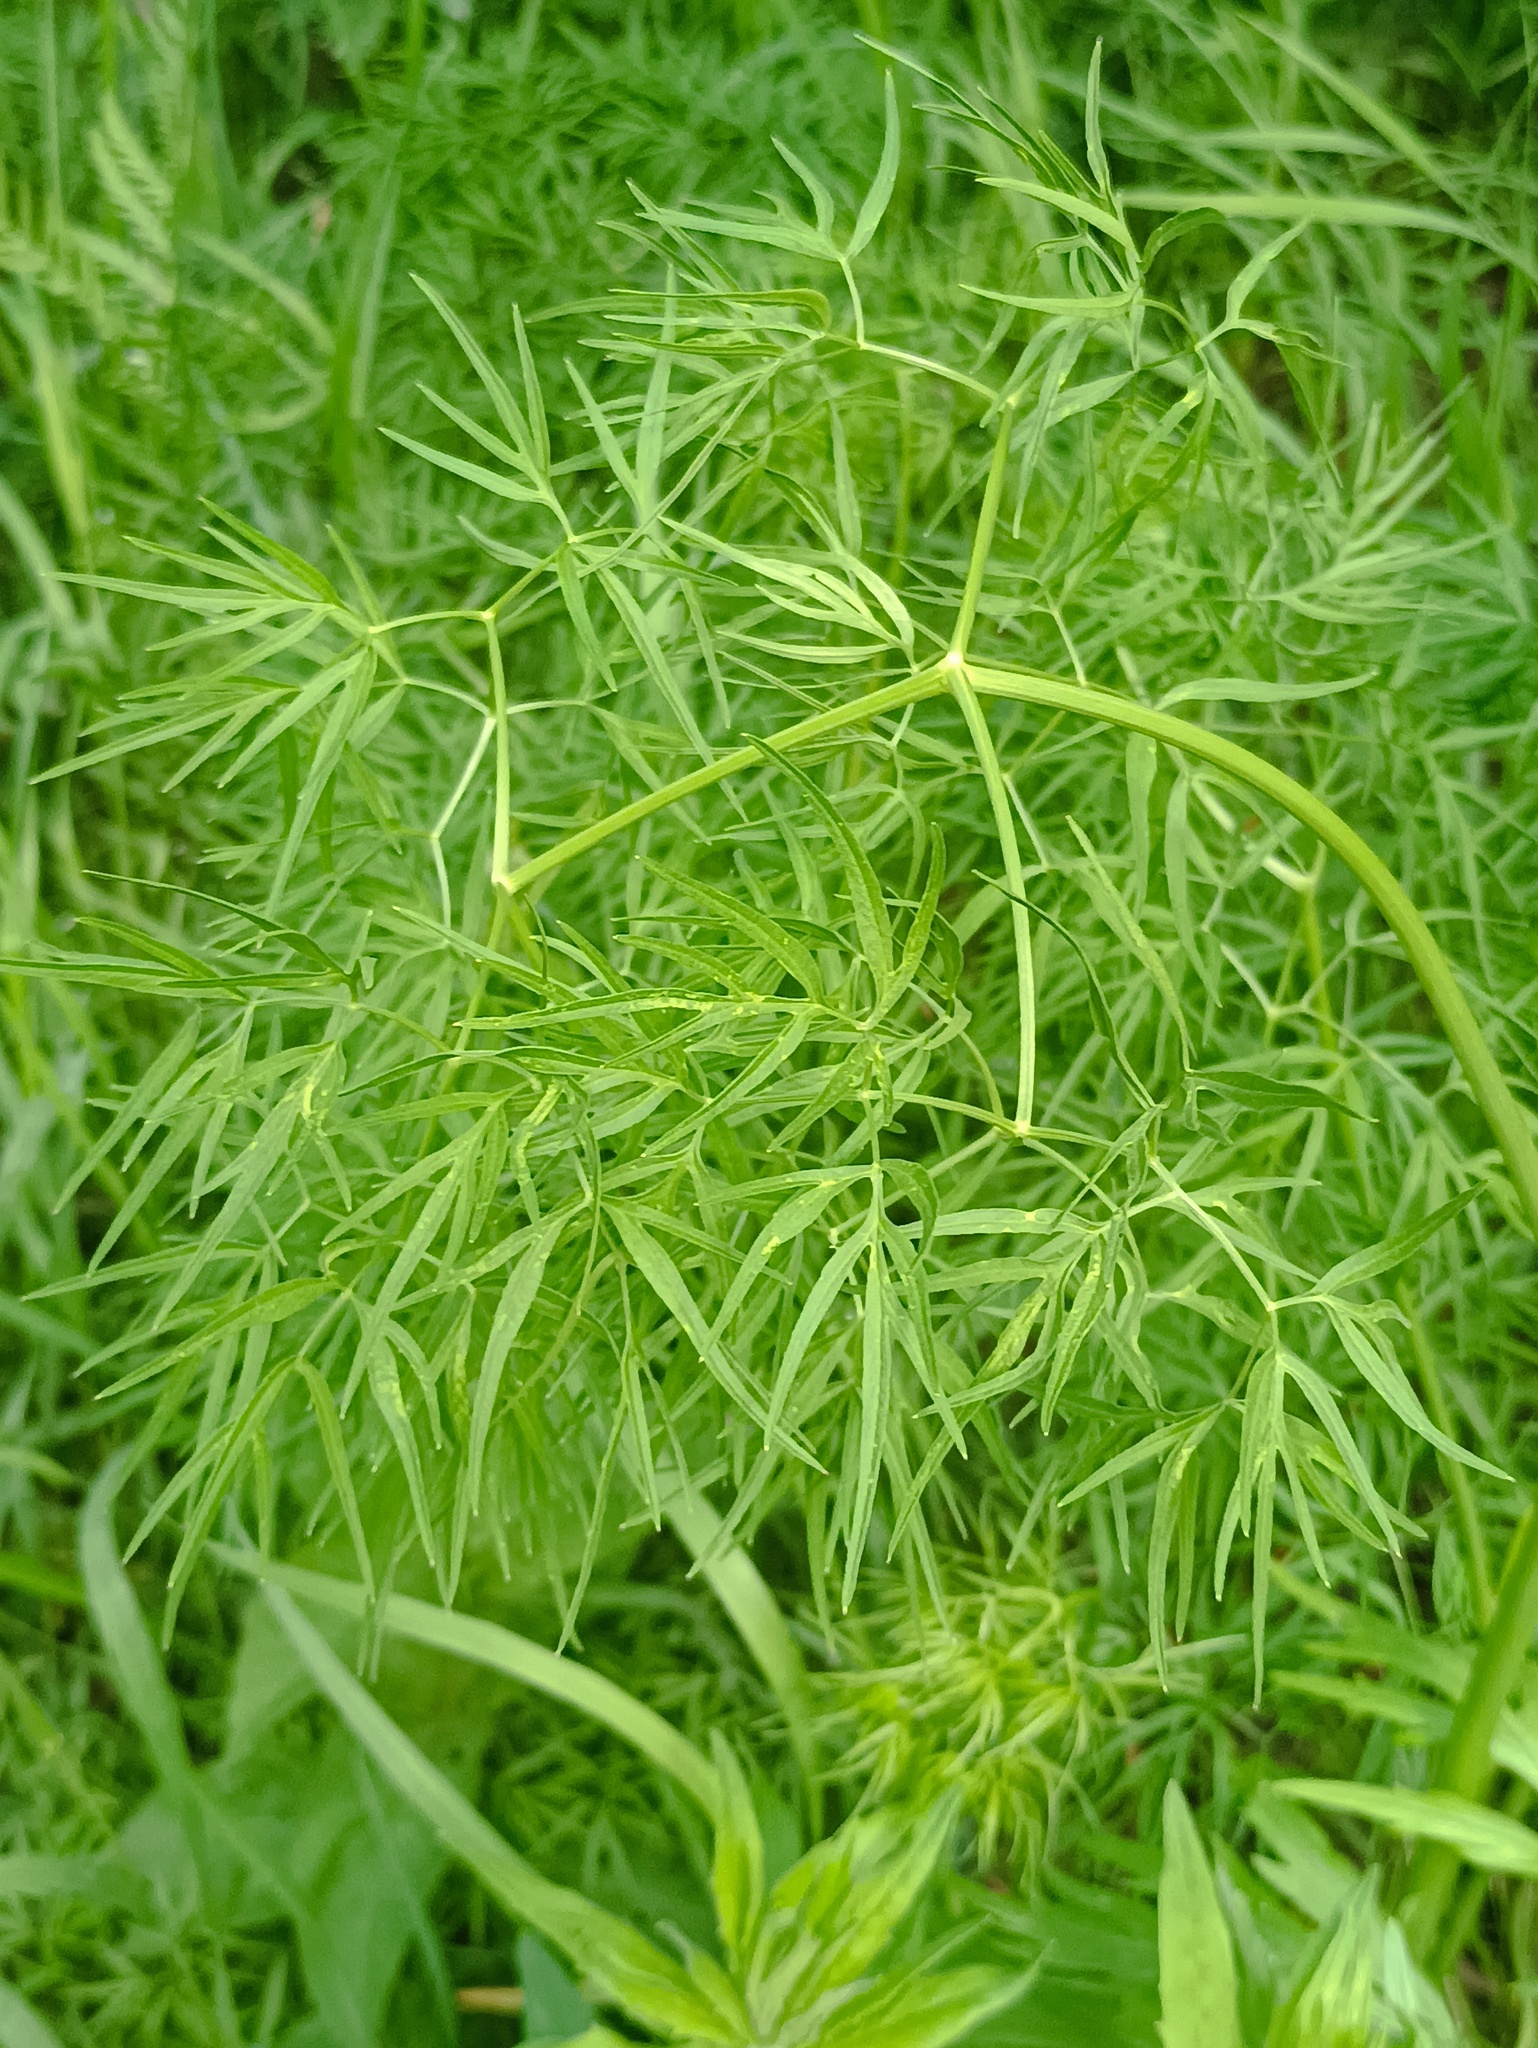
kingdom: Plantae
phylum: Tracheophyta
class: Magnoliopsida
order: Apiales
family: Apiaceae
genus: Cenolophium
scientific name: Cenolophium fischeri
